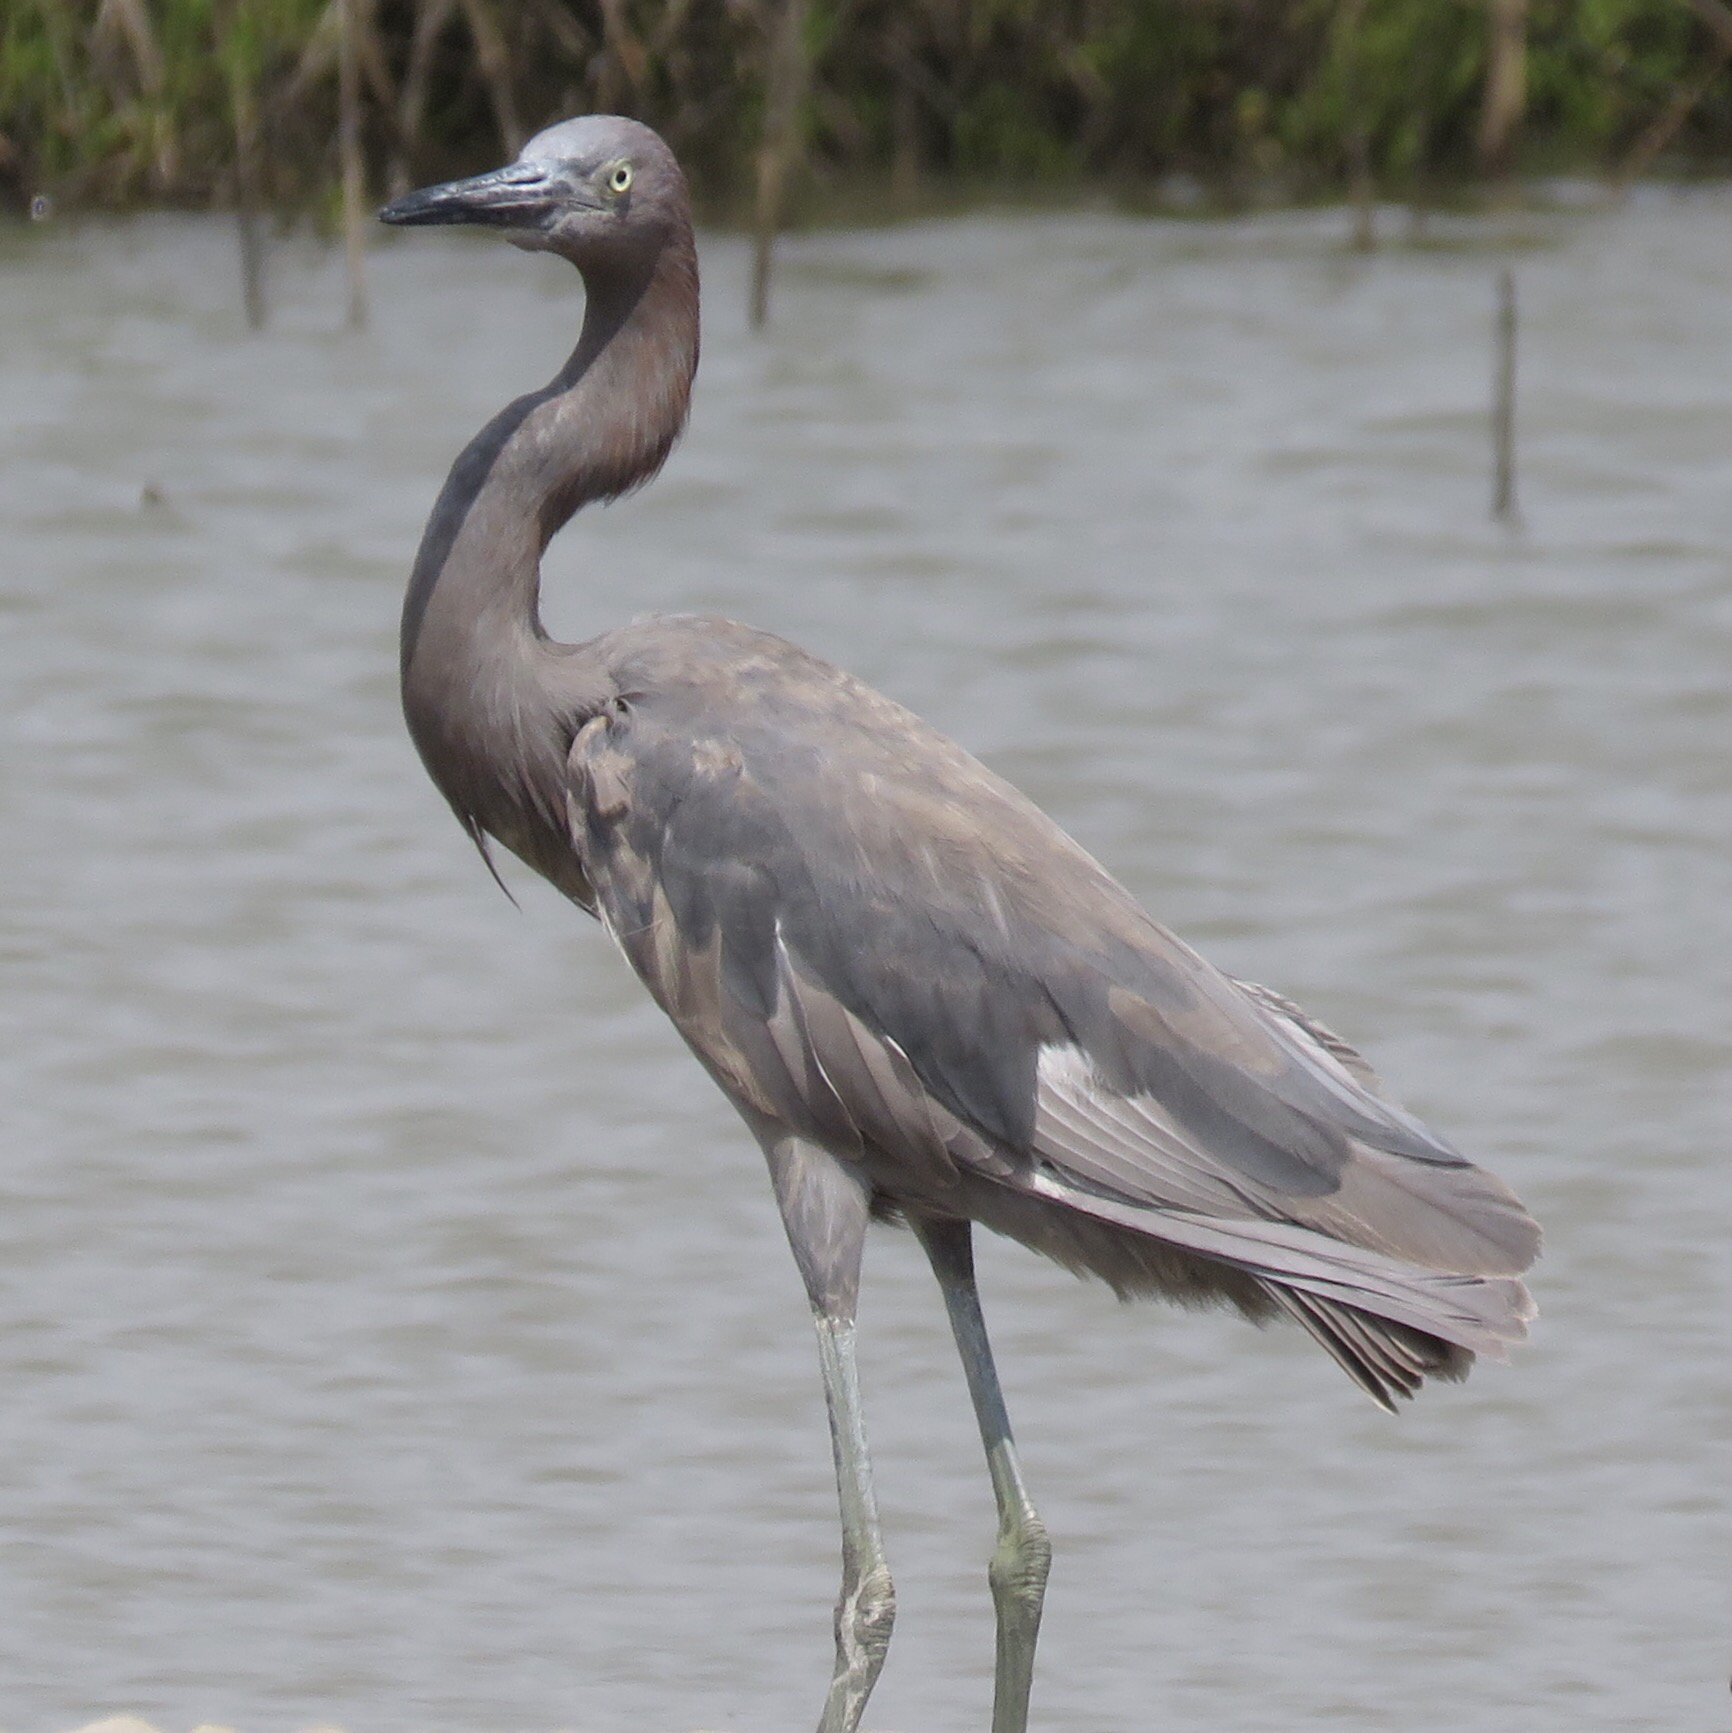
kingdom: Animalia
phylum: Chordata
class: Aves
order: Pelecaniformes
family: Ardeidae
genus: Egretta
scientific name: Egretta rufescens
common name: Reddish egret
